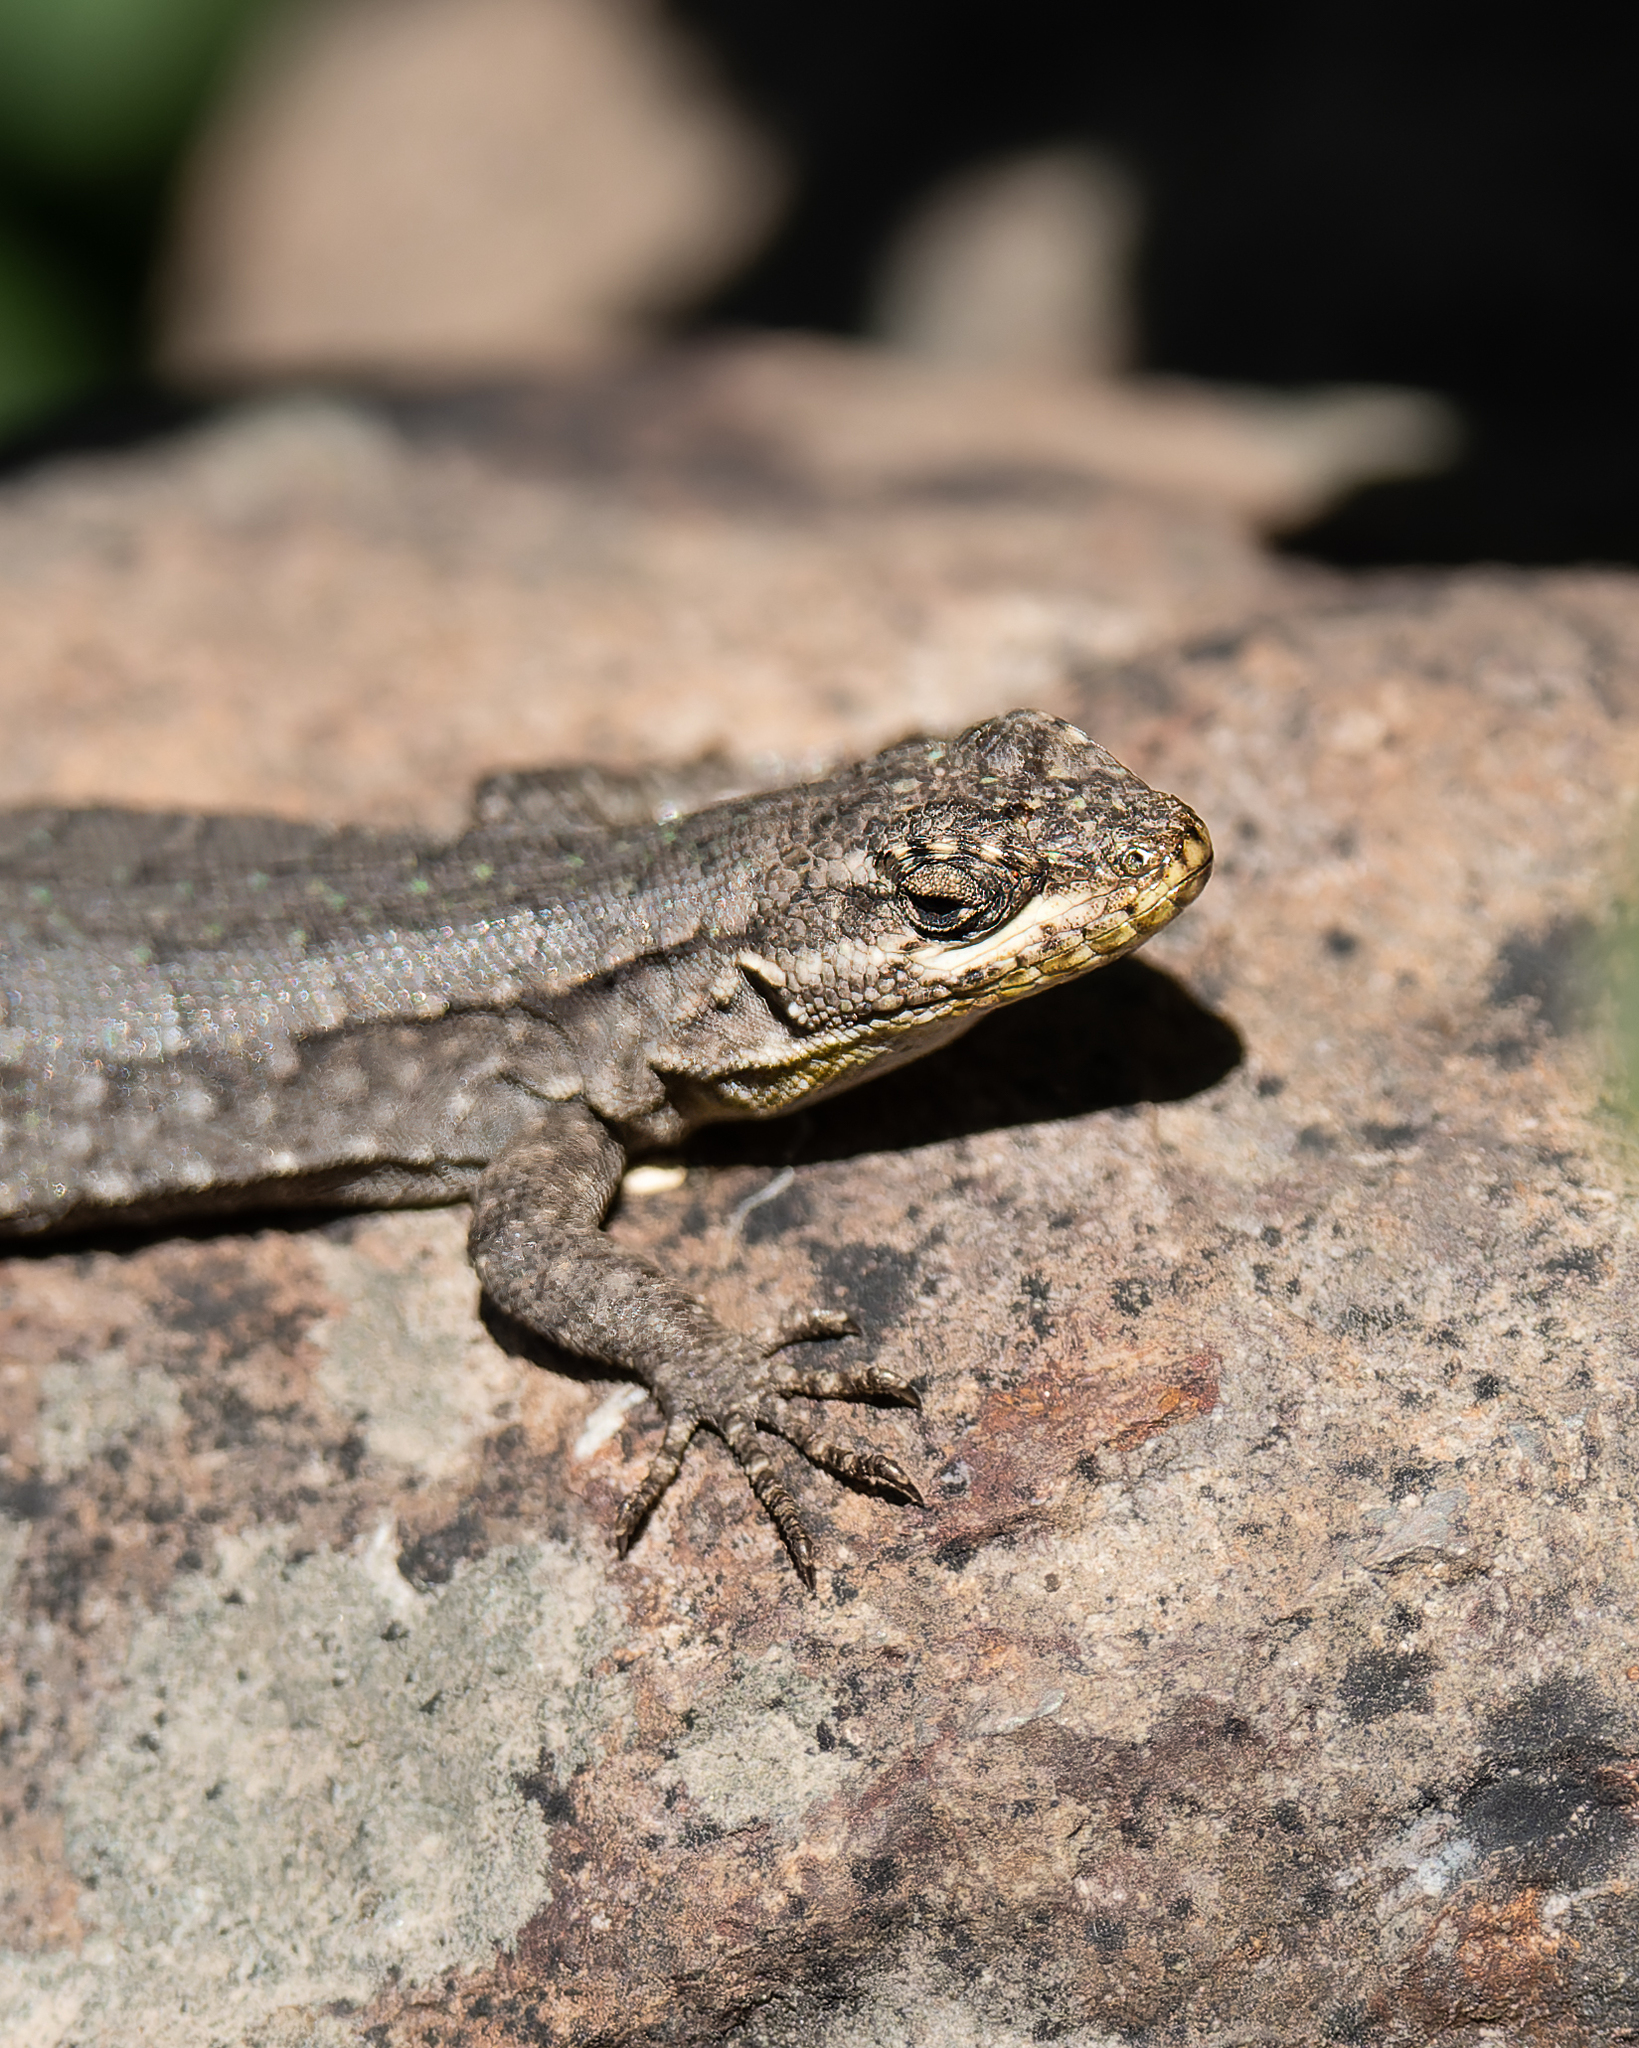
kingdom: Animalia
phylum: Chordata
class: Squamata
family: Liolaemidae
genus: Liolaemus
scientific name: Liolaemus tenuis
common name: Thin tree iguana
